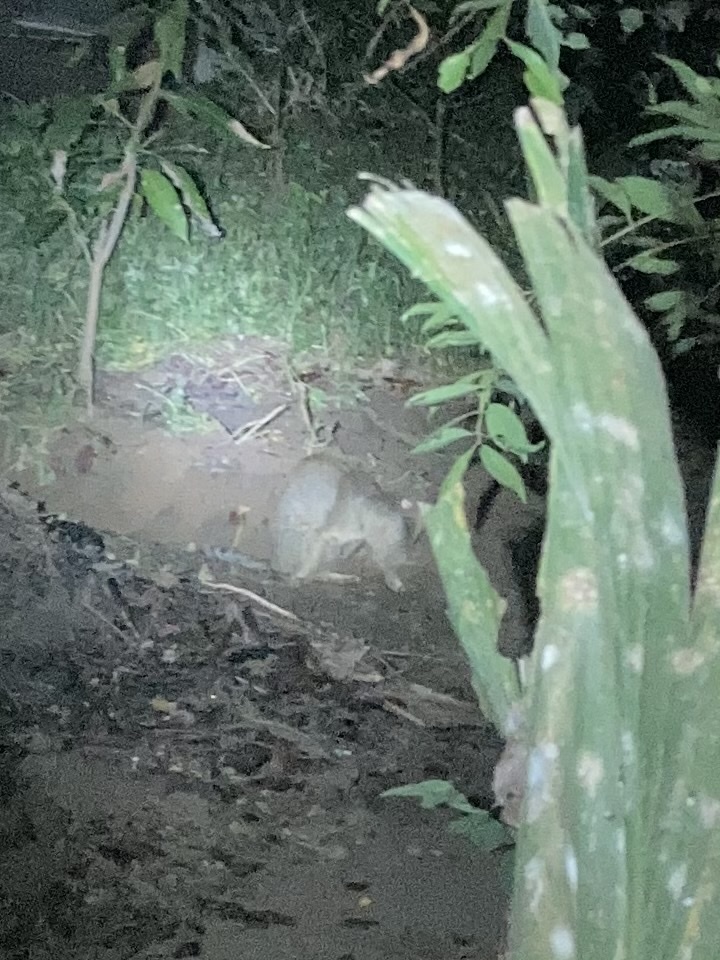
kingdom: Animalia
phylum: Chordata
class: Mammalia
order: Carnivora
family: Felidae
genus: Felis
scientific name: Felis chaus
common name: Jungle cat
